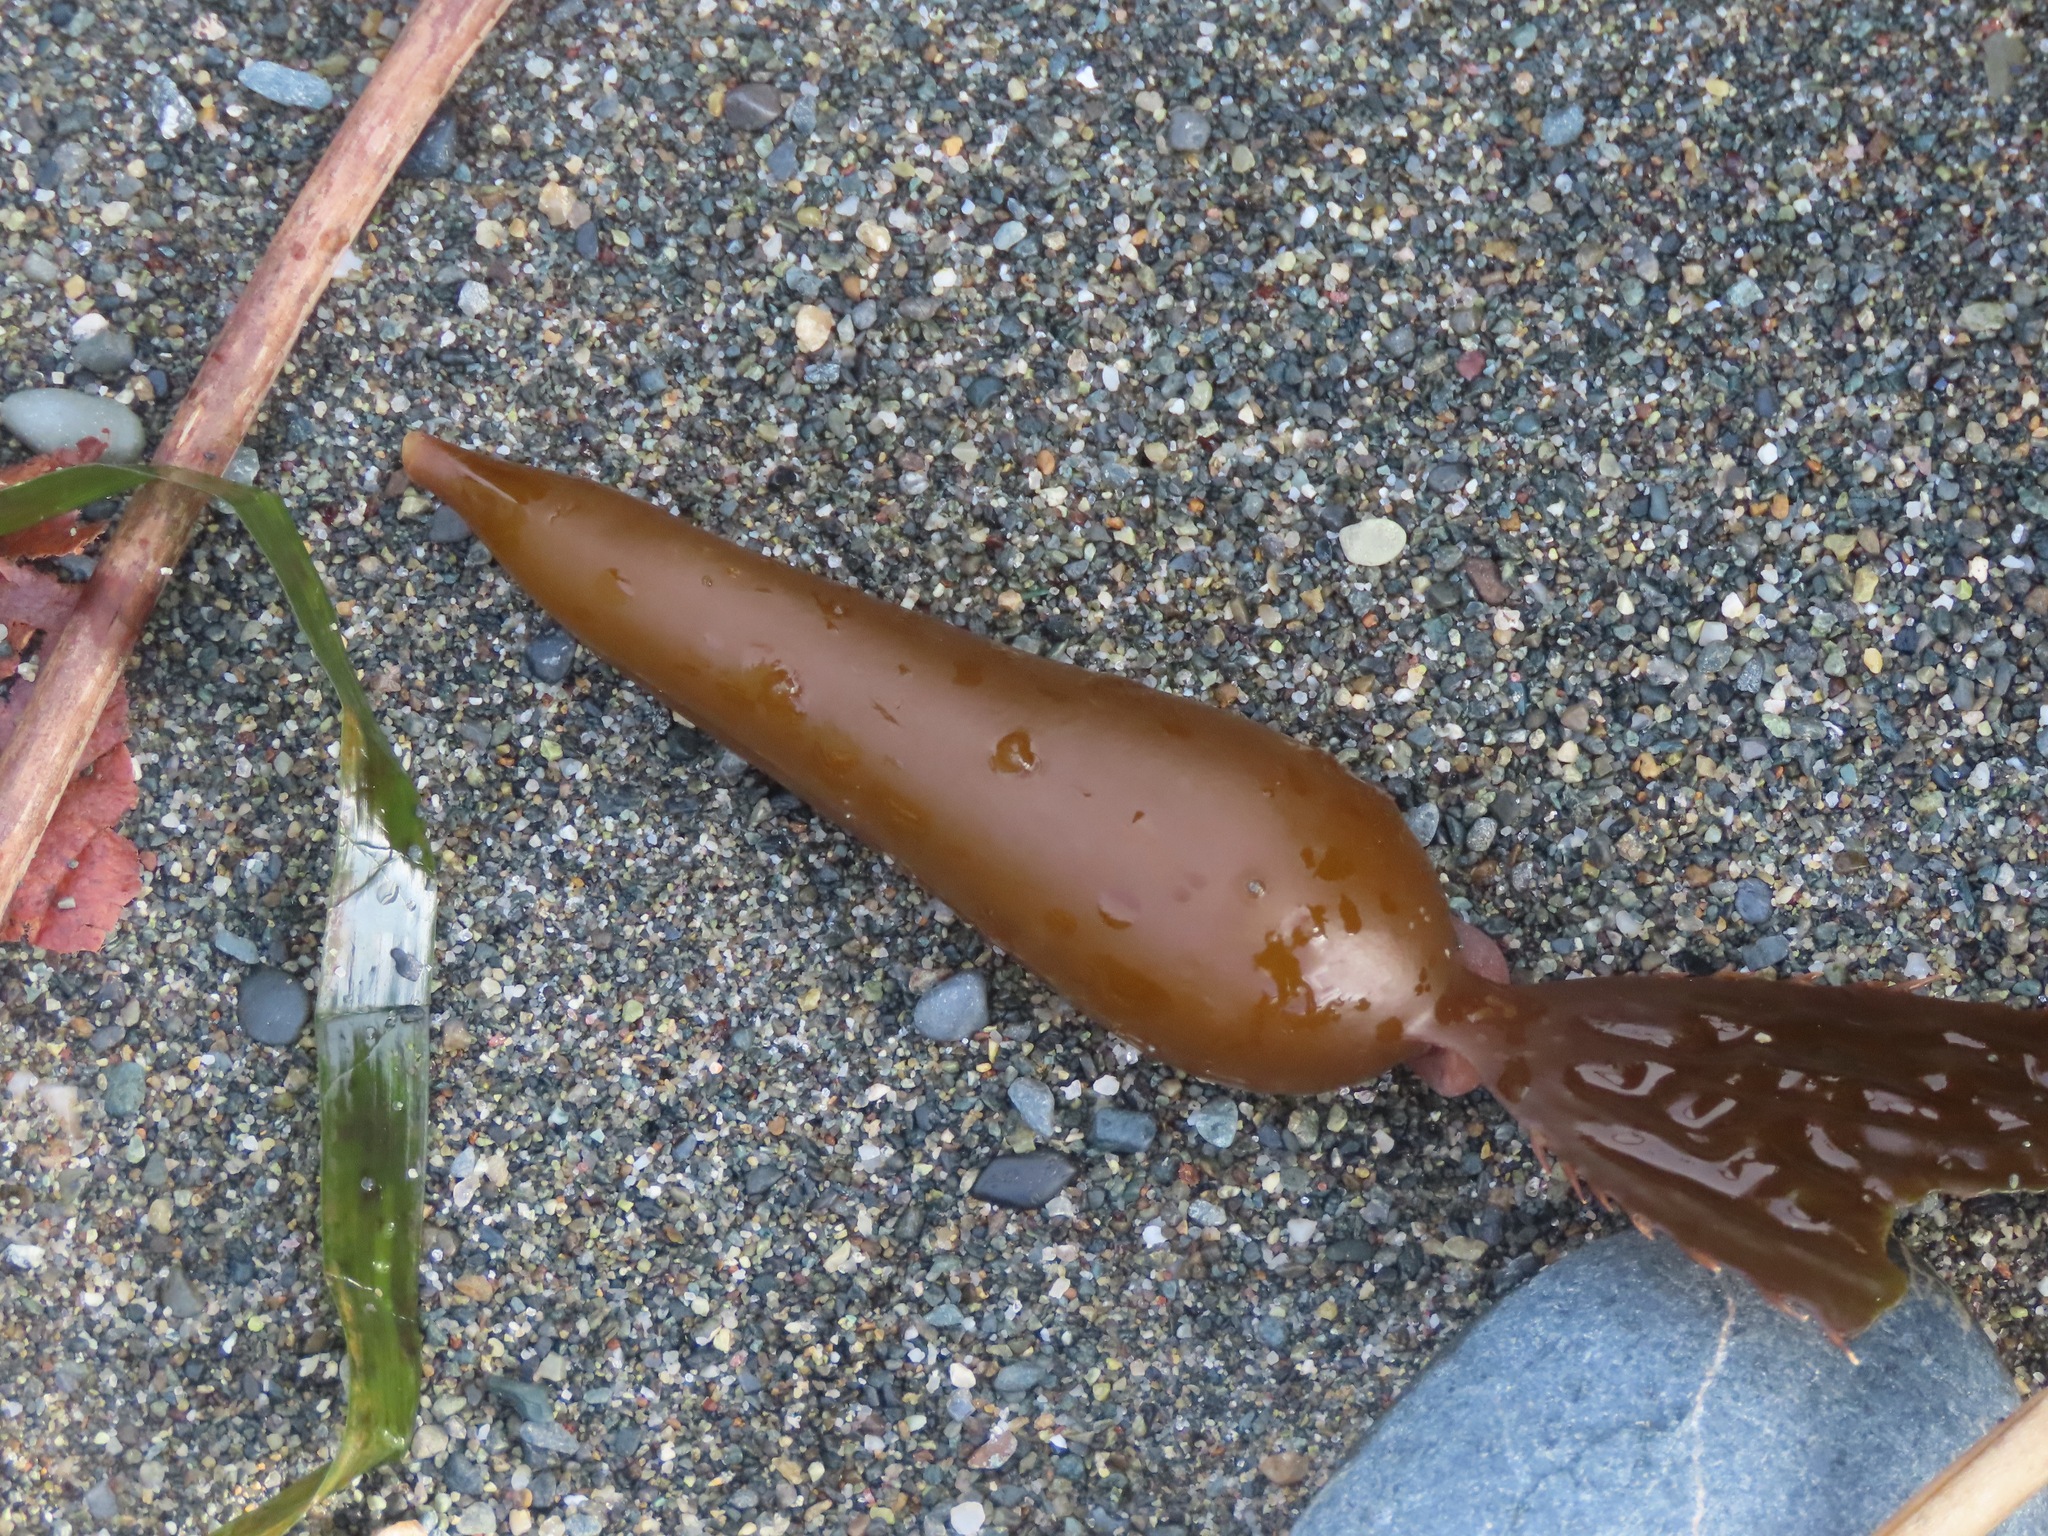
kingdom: Chromista
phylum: Ochrophyta
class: Phaeophyceae
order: Laminariales
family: Laminariaceae
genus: Macrocystis
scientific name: Macrocystis pyrifera
